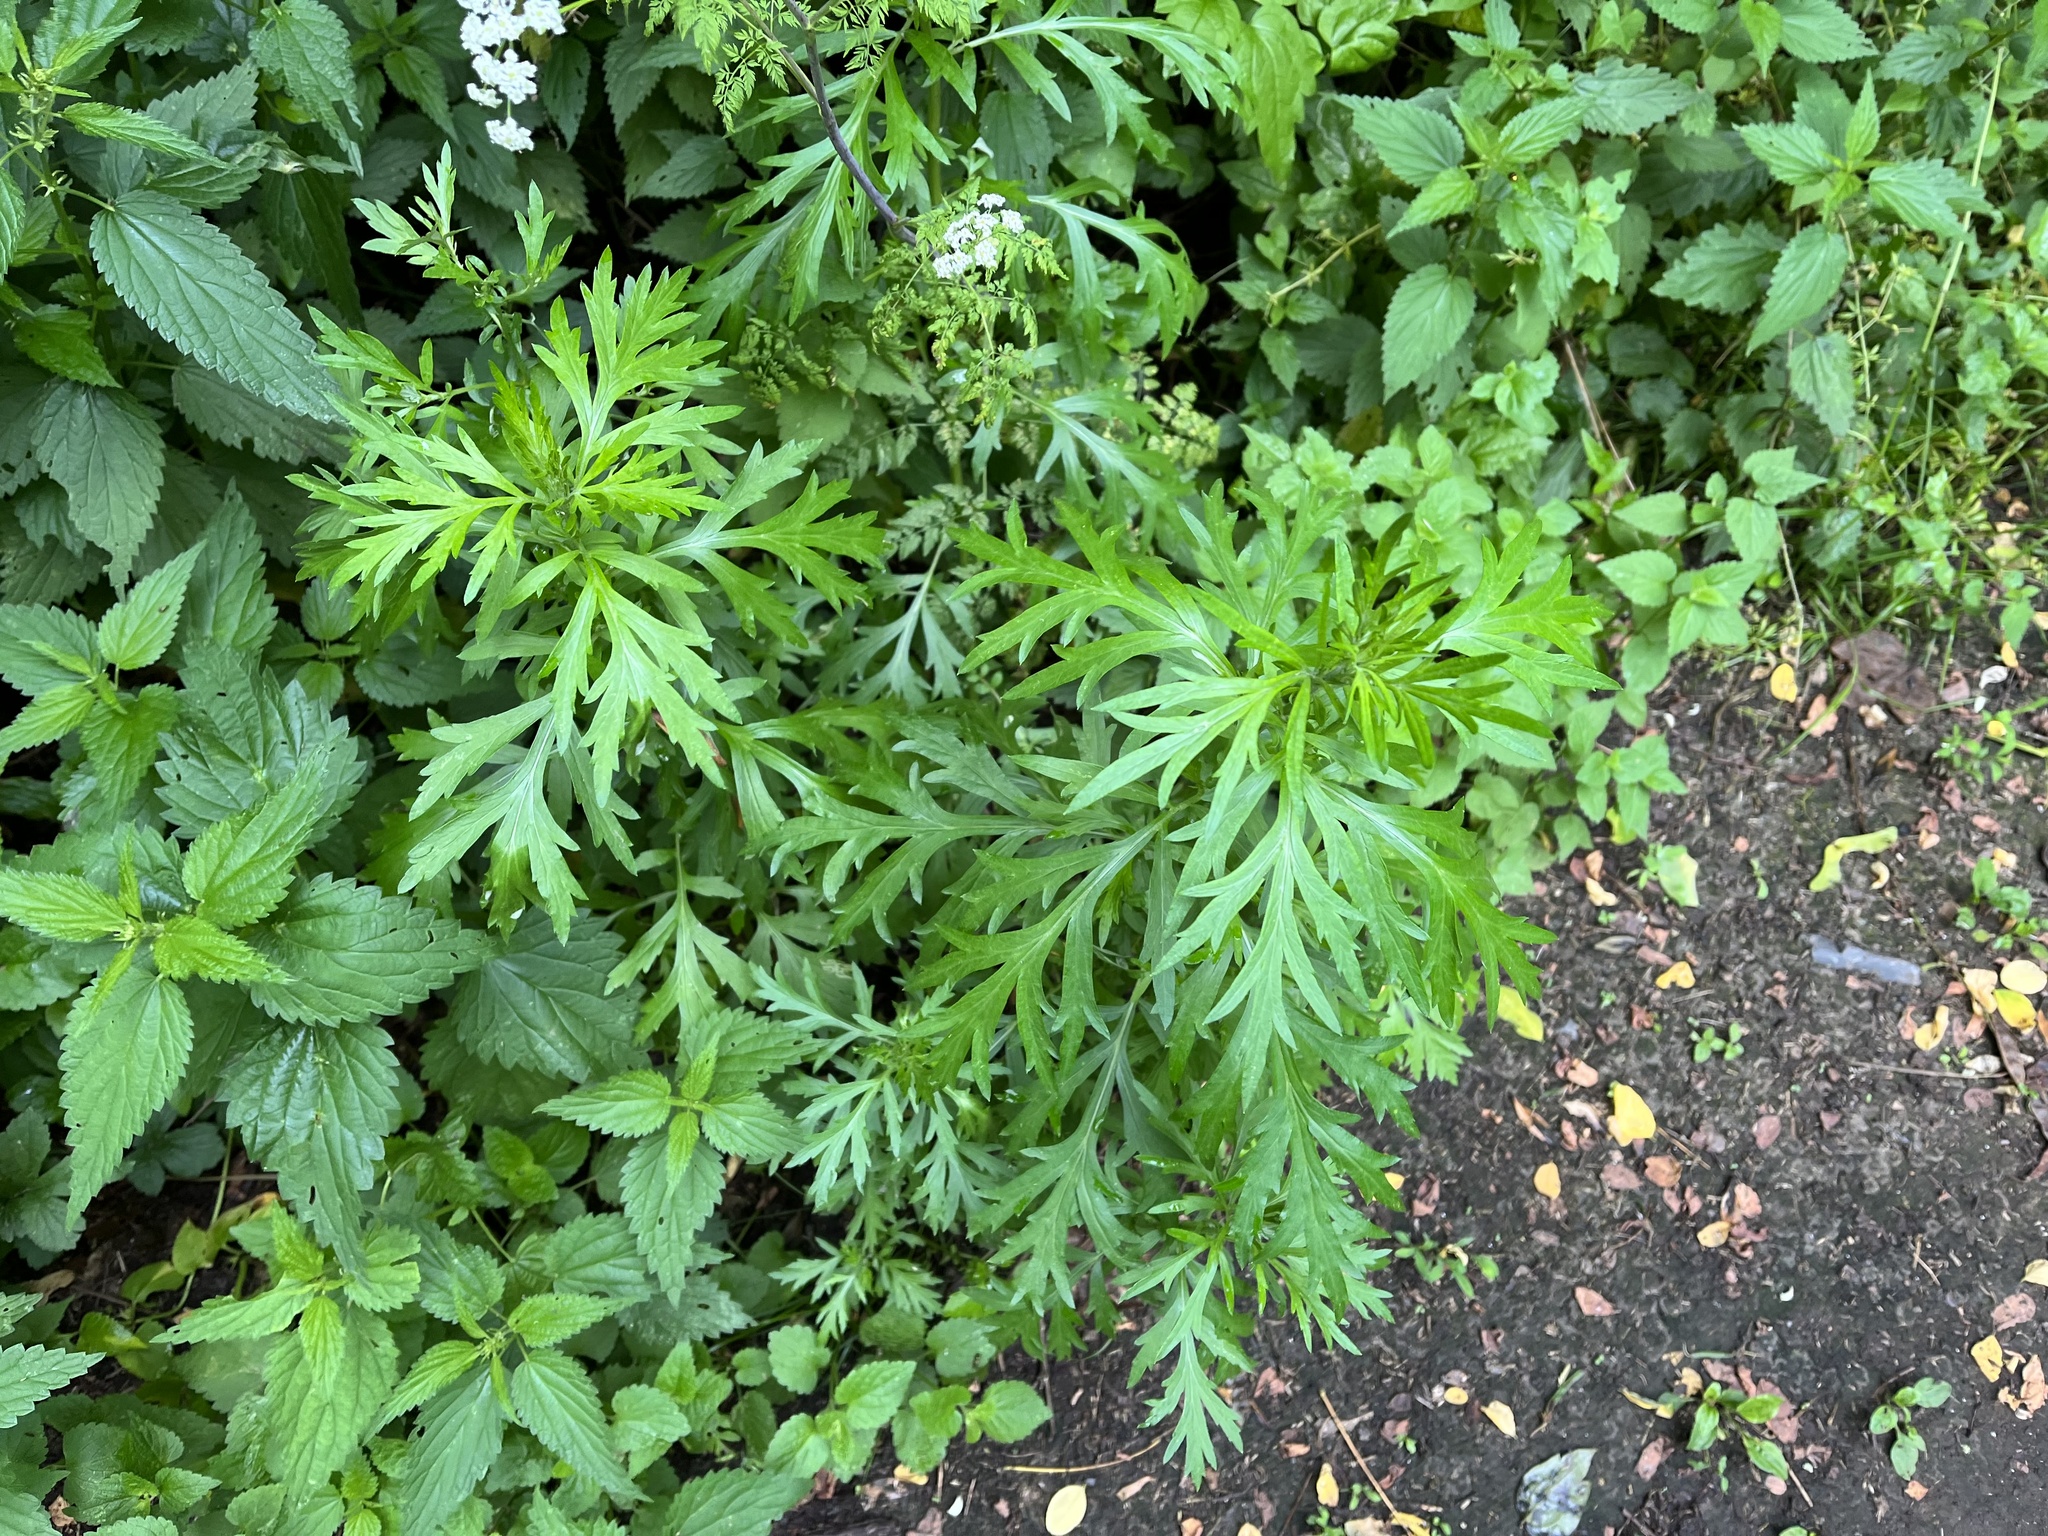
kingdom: Plantae
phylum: Tracheophyta
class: Magnoliopsida
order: Asterales
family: Asteraceae
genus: Artemisia
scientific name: Artemisia vulgaris
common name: Mugwort
